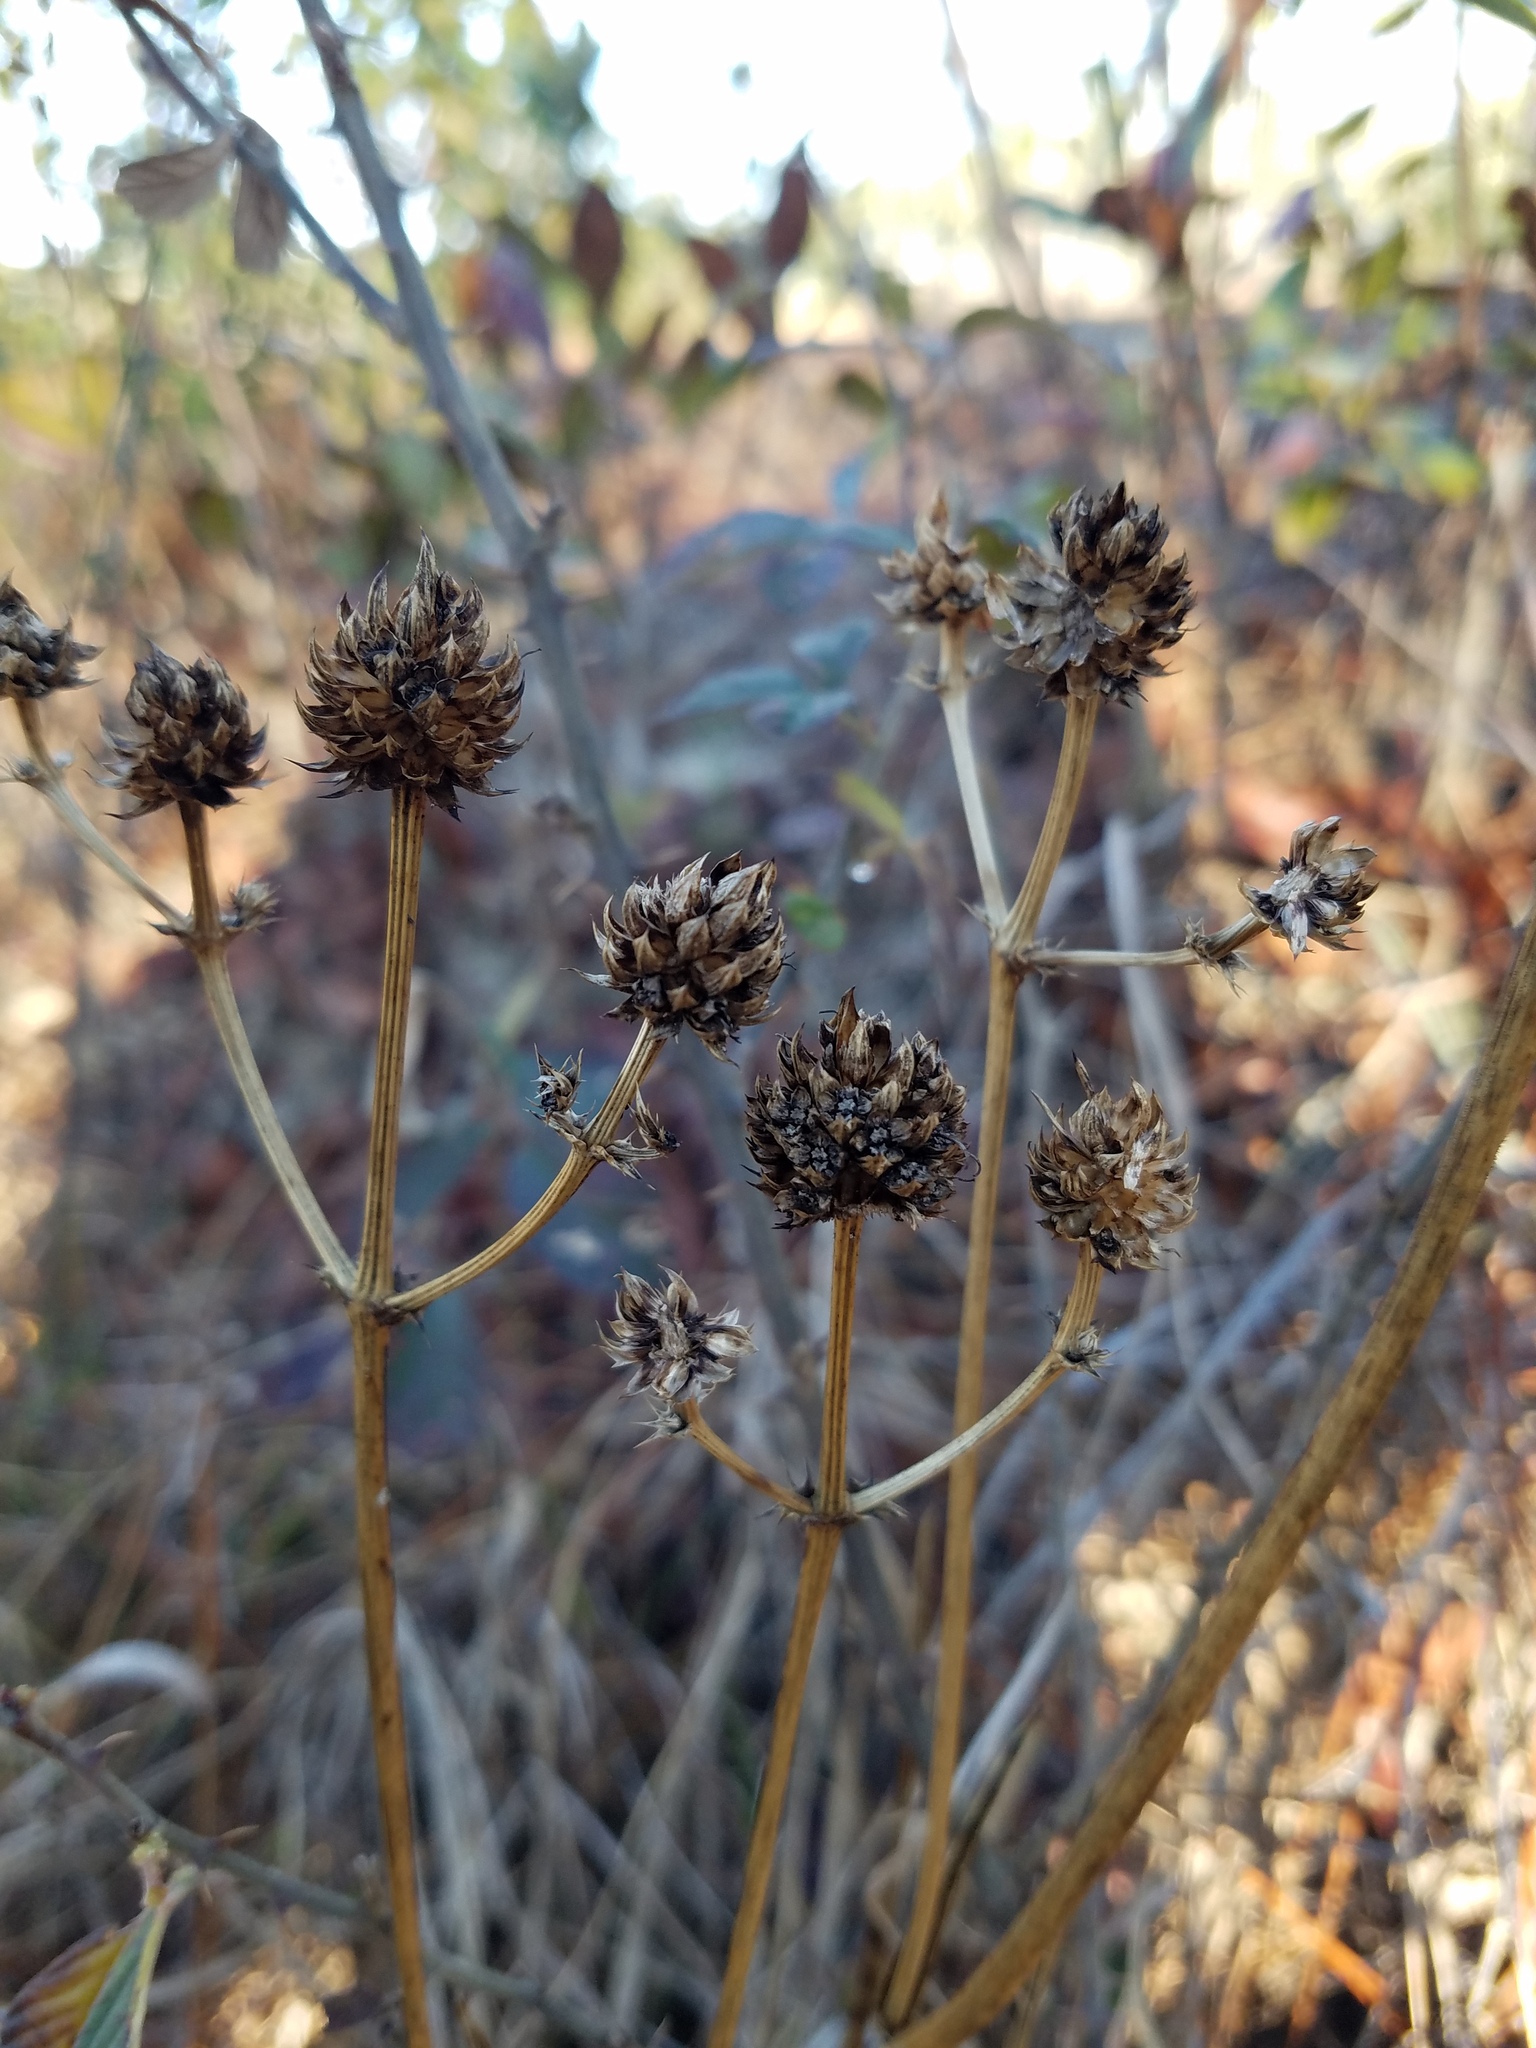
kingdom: Plantae
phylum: Tracheophyta
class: Magnoliopsida
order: Apiales
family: Apiaceae
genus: Eryngium
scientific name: Eryngium yuccifolium
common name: Button eryngo
